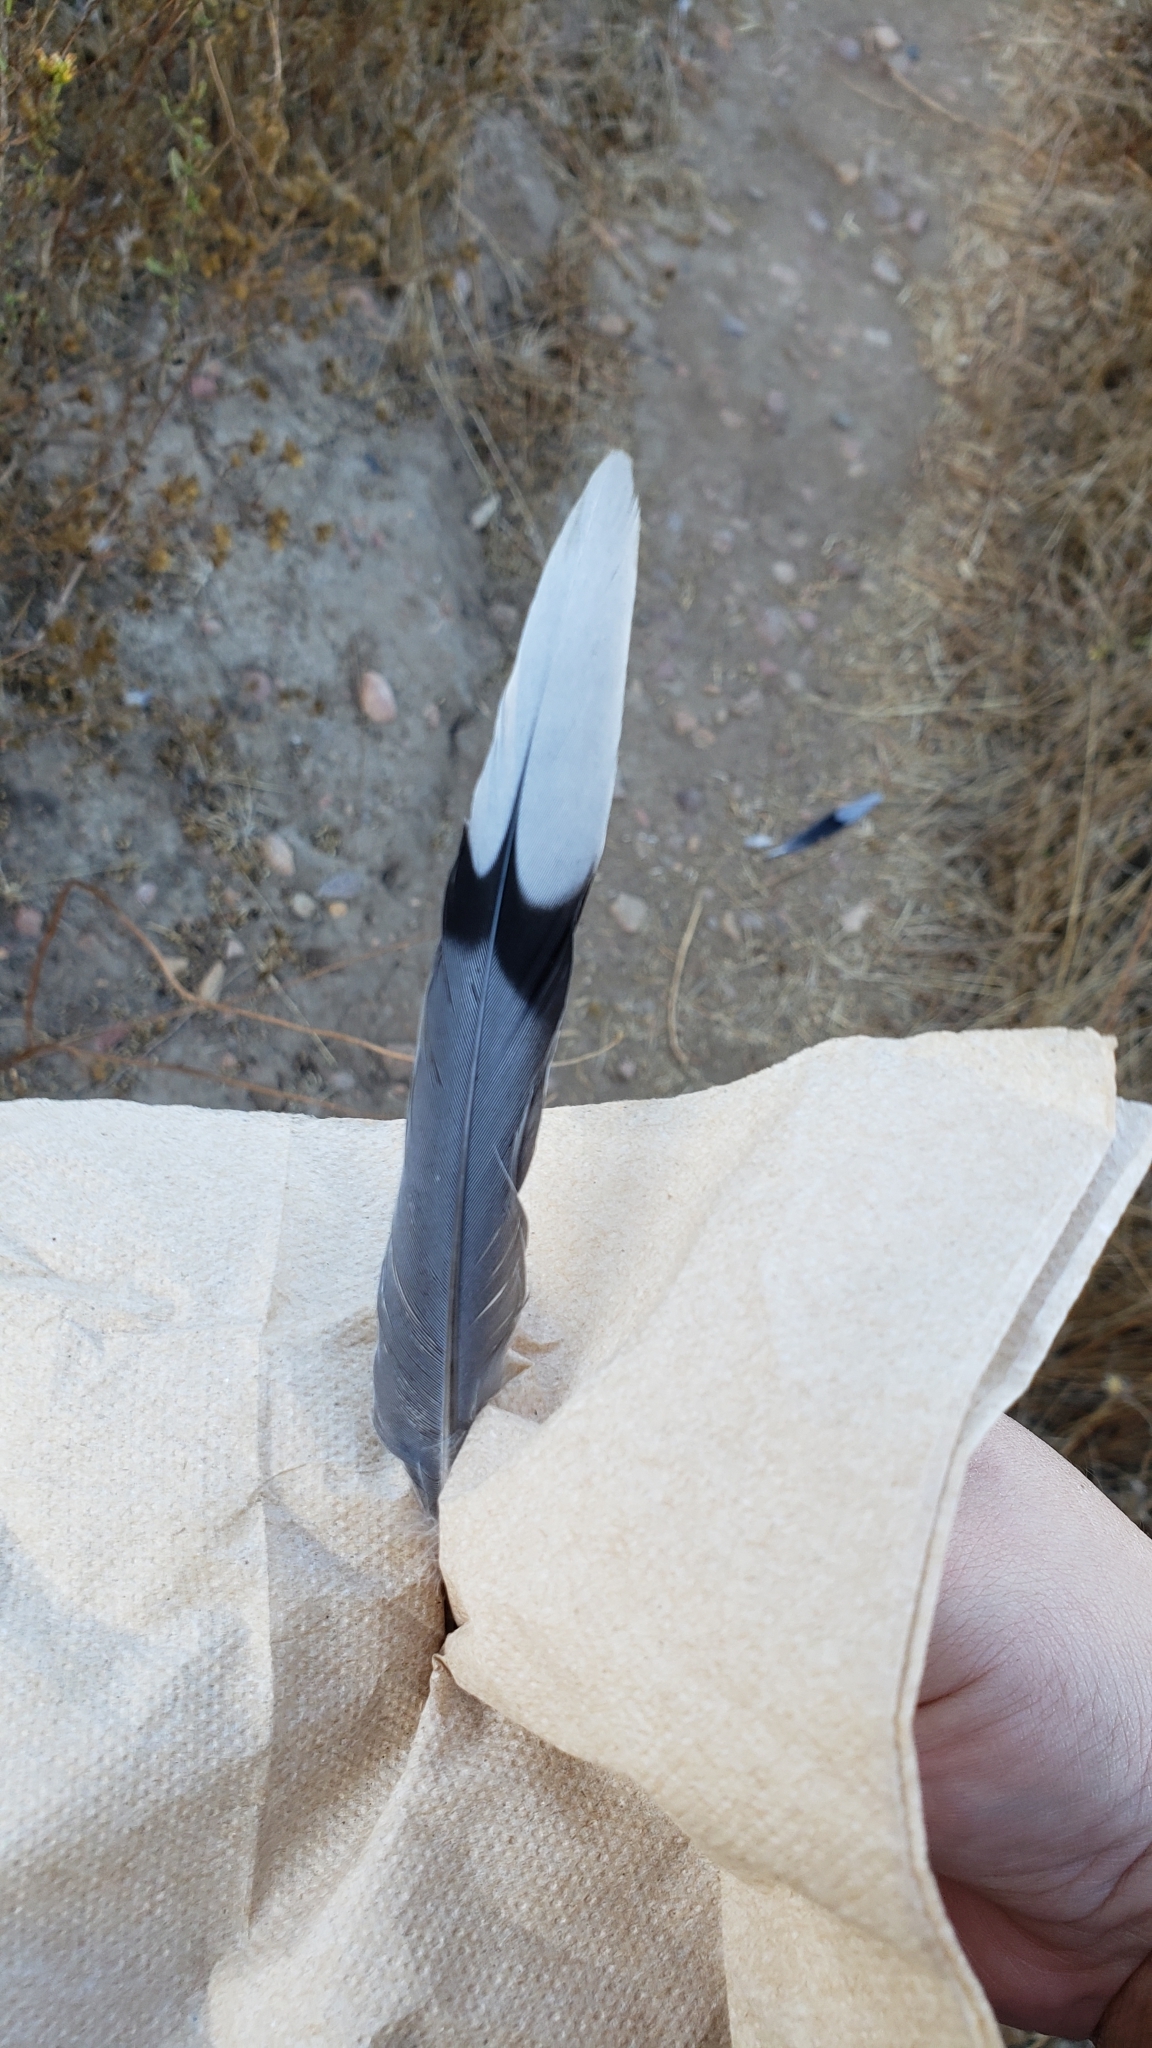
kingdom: Animalia
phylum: Chordata
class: Aves
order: Columbiformes
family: Columbidae
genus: Zenaida
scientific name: Zenaida macroura
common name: Mourning dove
